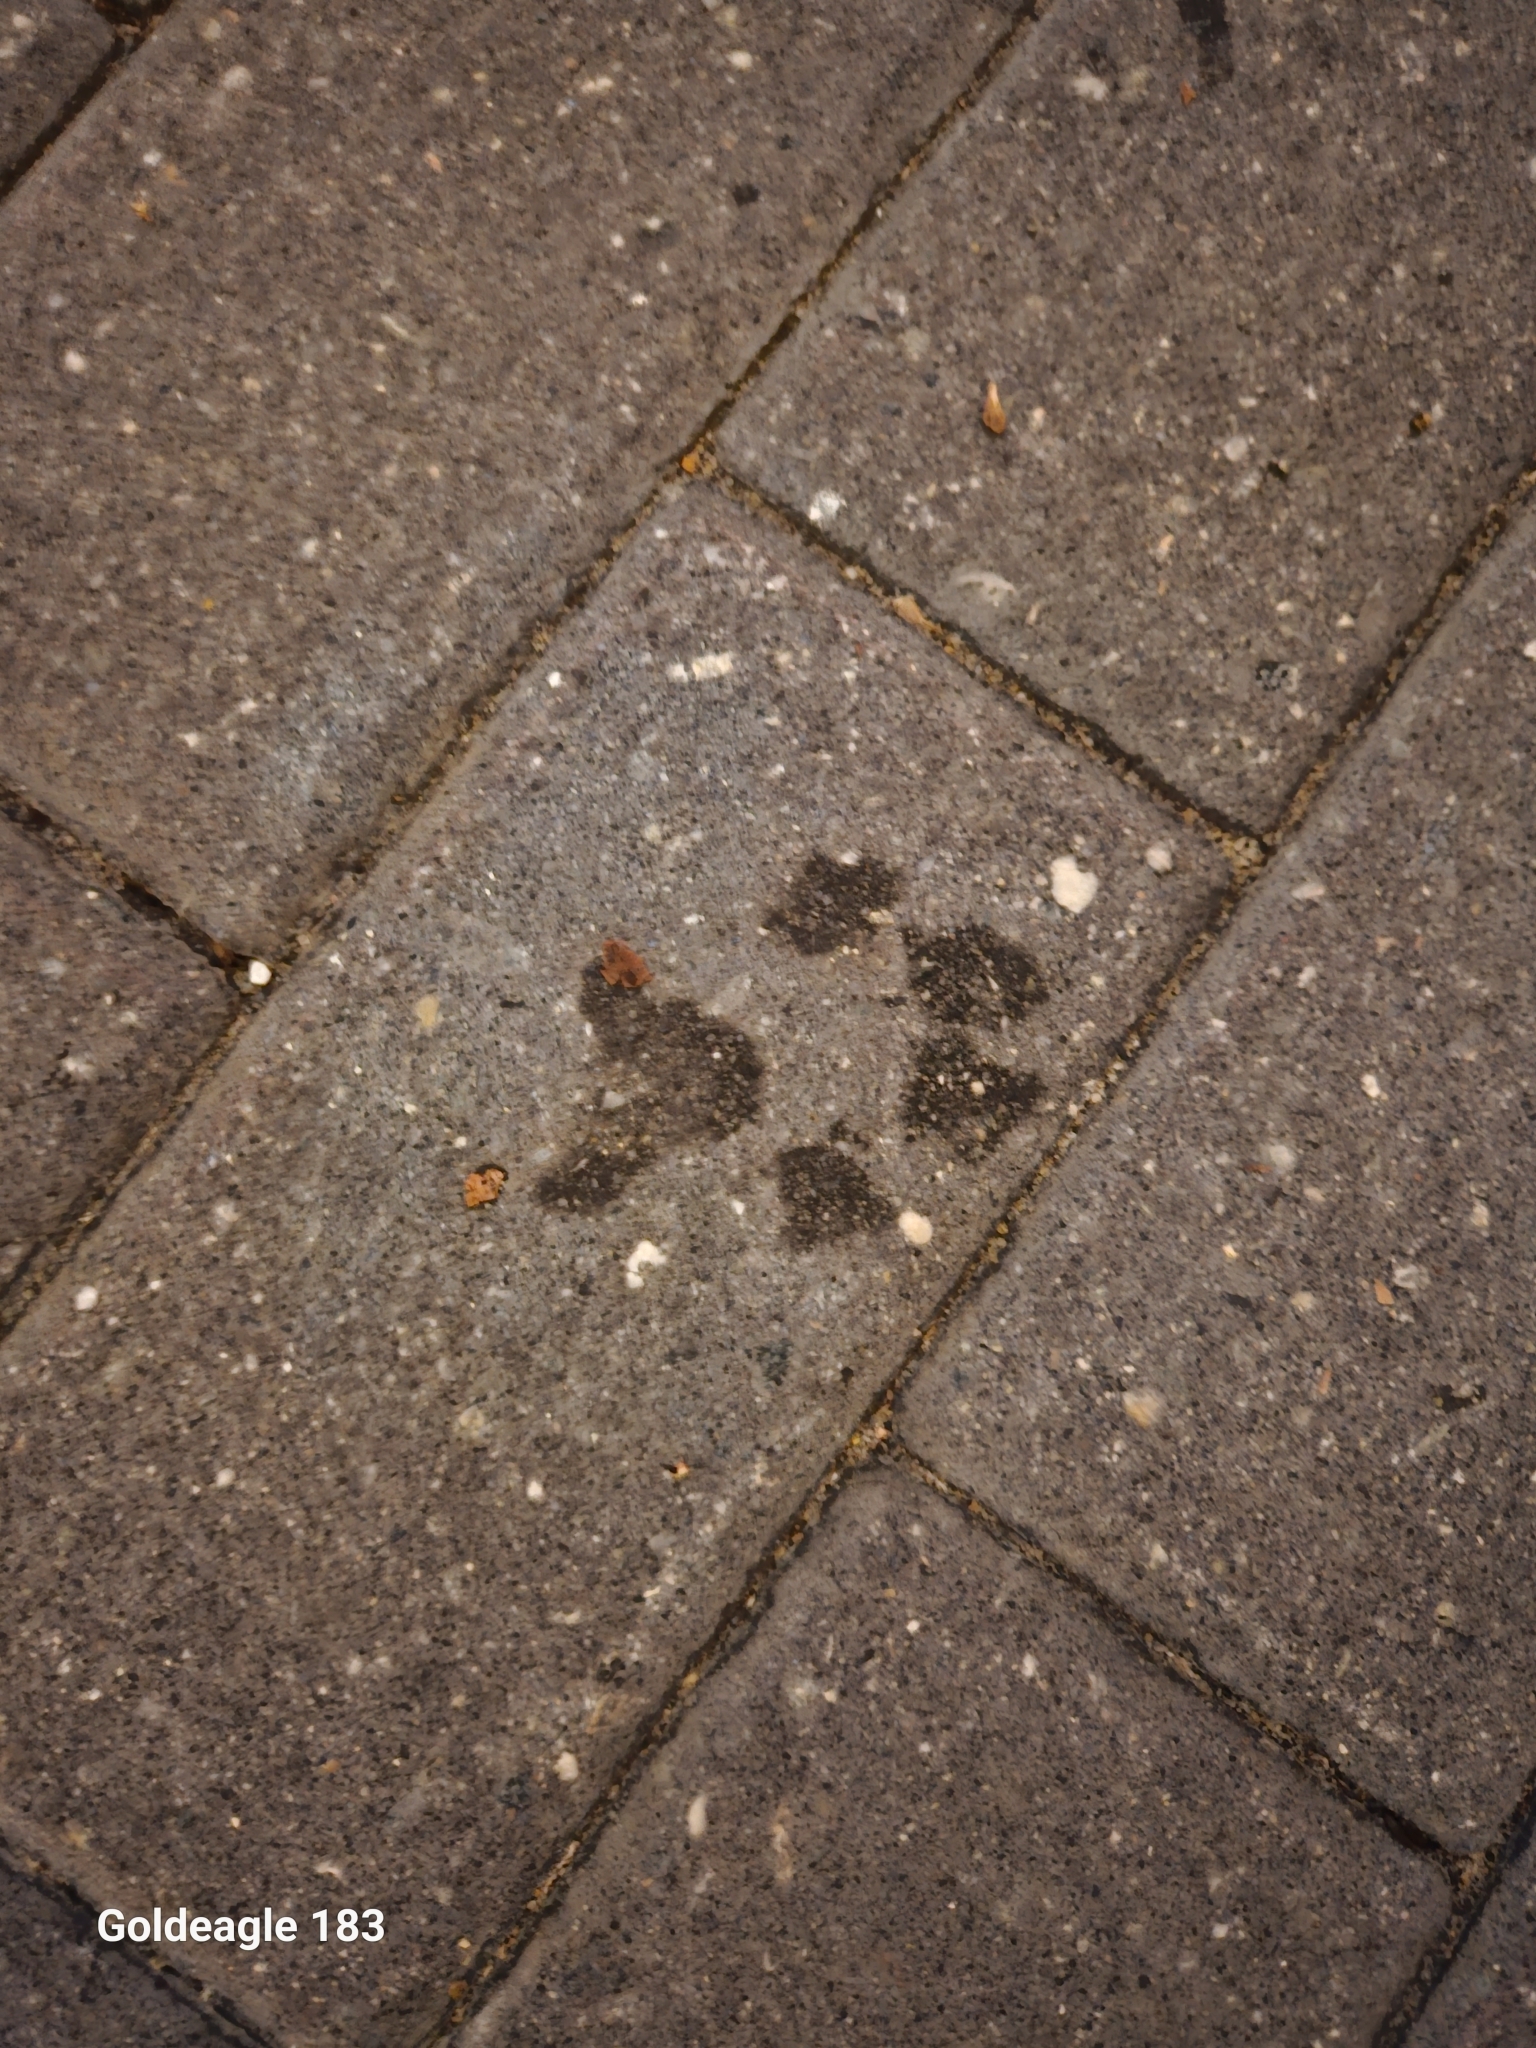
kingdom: Animalia
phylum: Chordata
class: Mammalia
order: Carnivora
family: Canidae
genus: Canis
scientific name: Canis lupus
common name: Gray wolf
